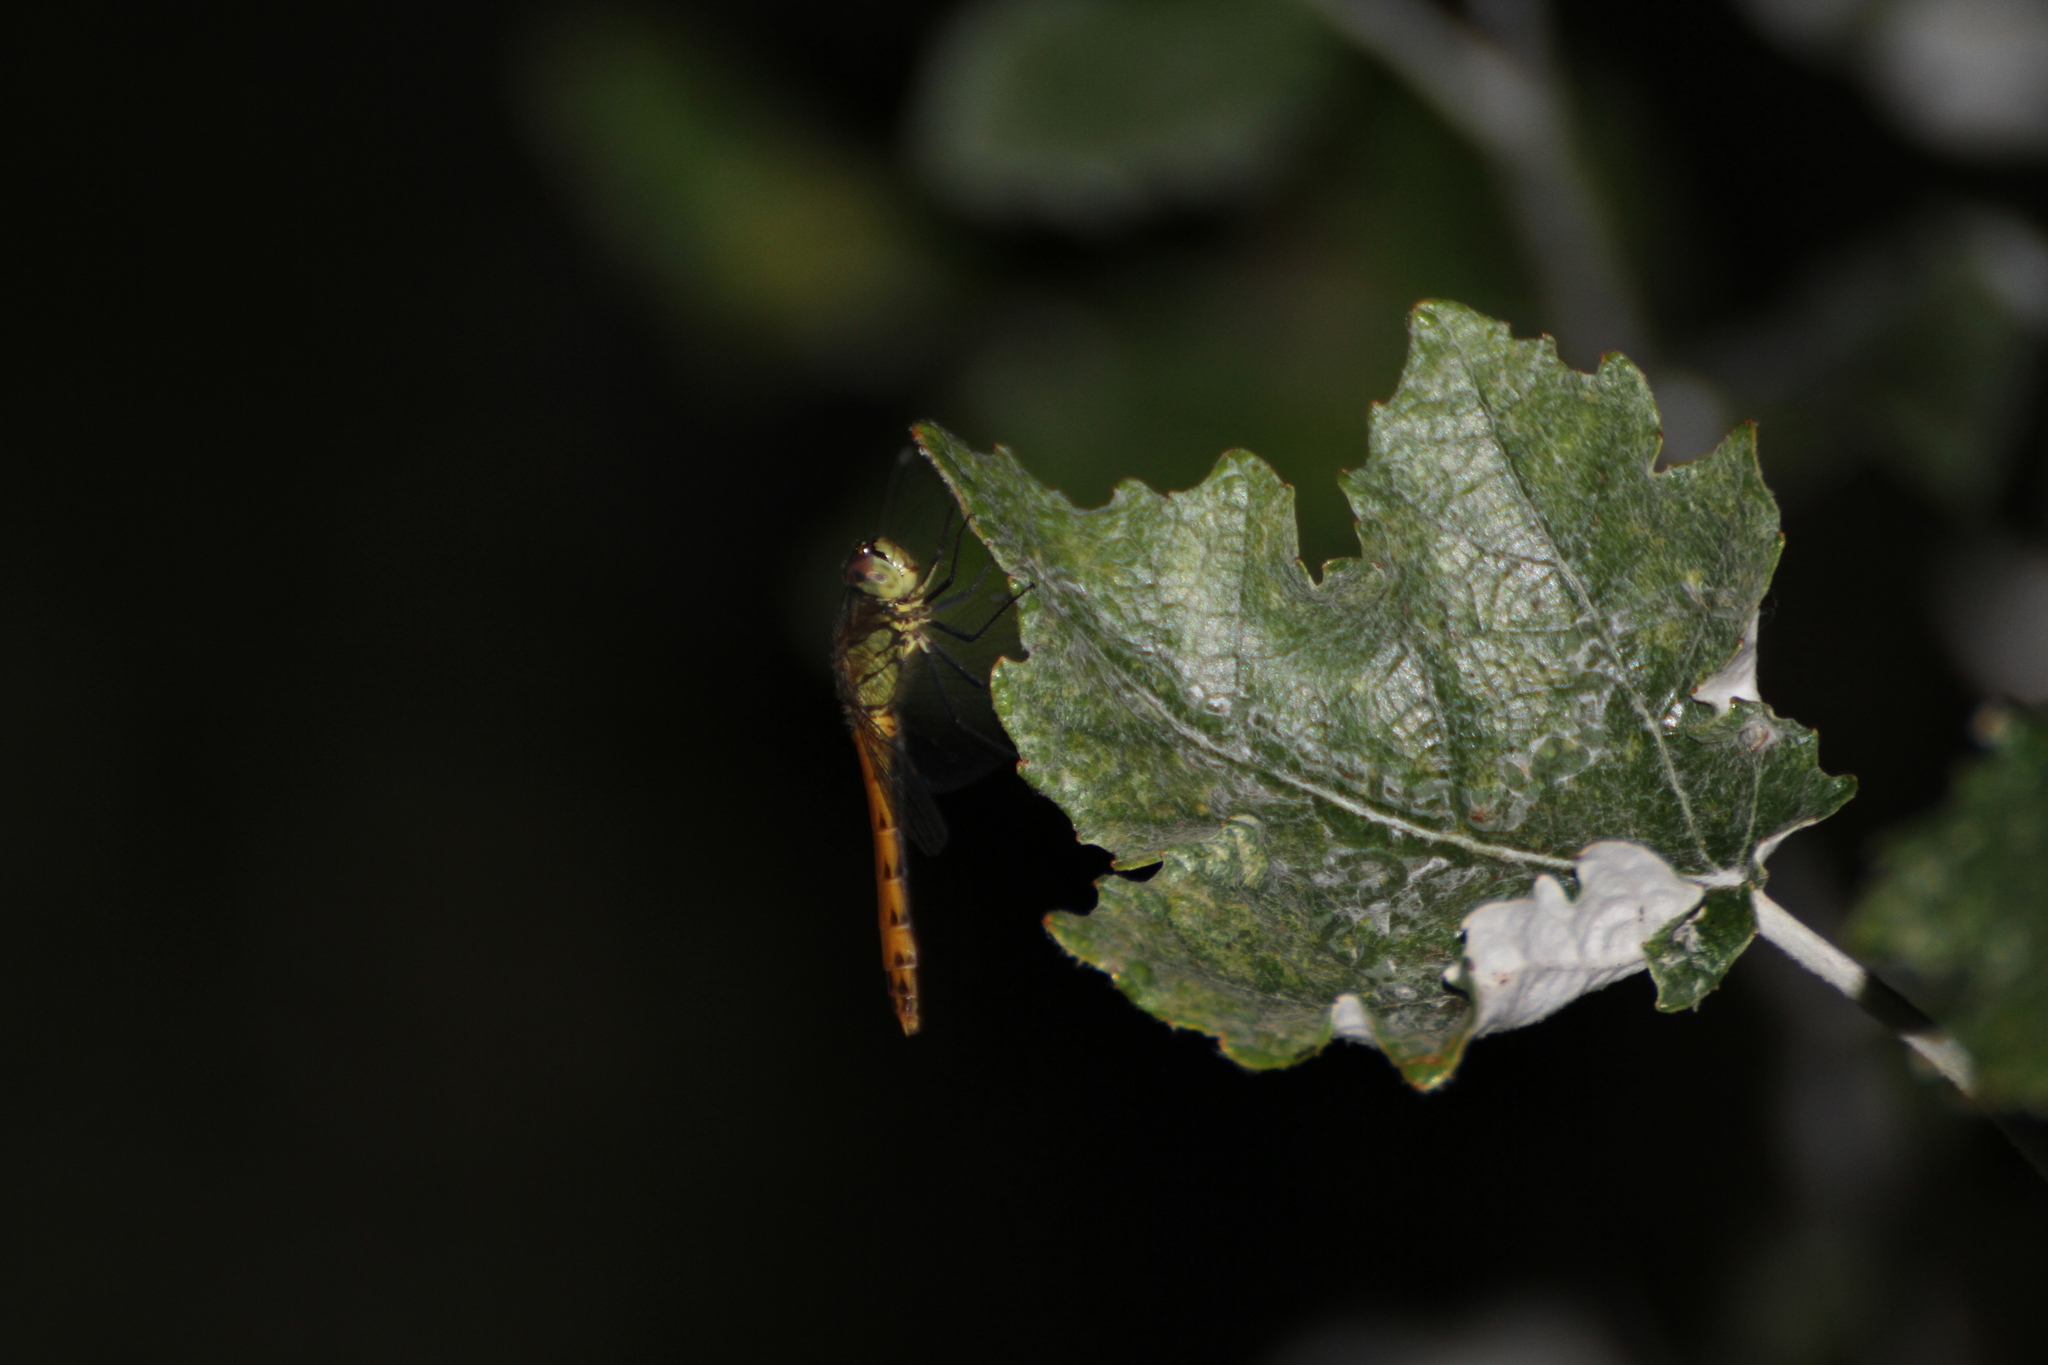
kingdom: Animalia
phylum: Arthropoda
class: Insecta
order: Odonata
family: Libellulidae
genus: Sympetrum
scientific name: Sympetrum depressiusculum
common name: Spotted darter
